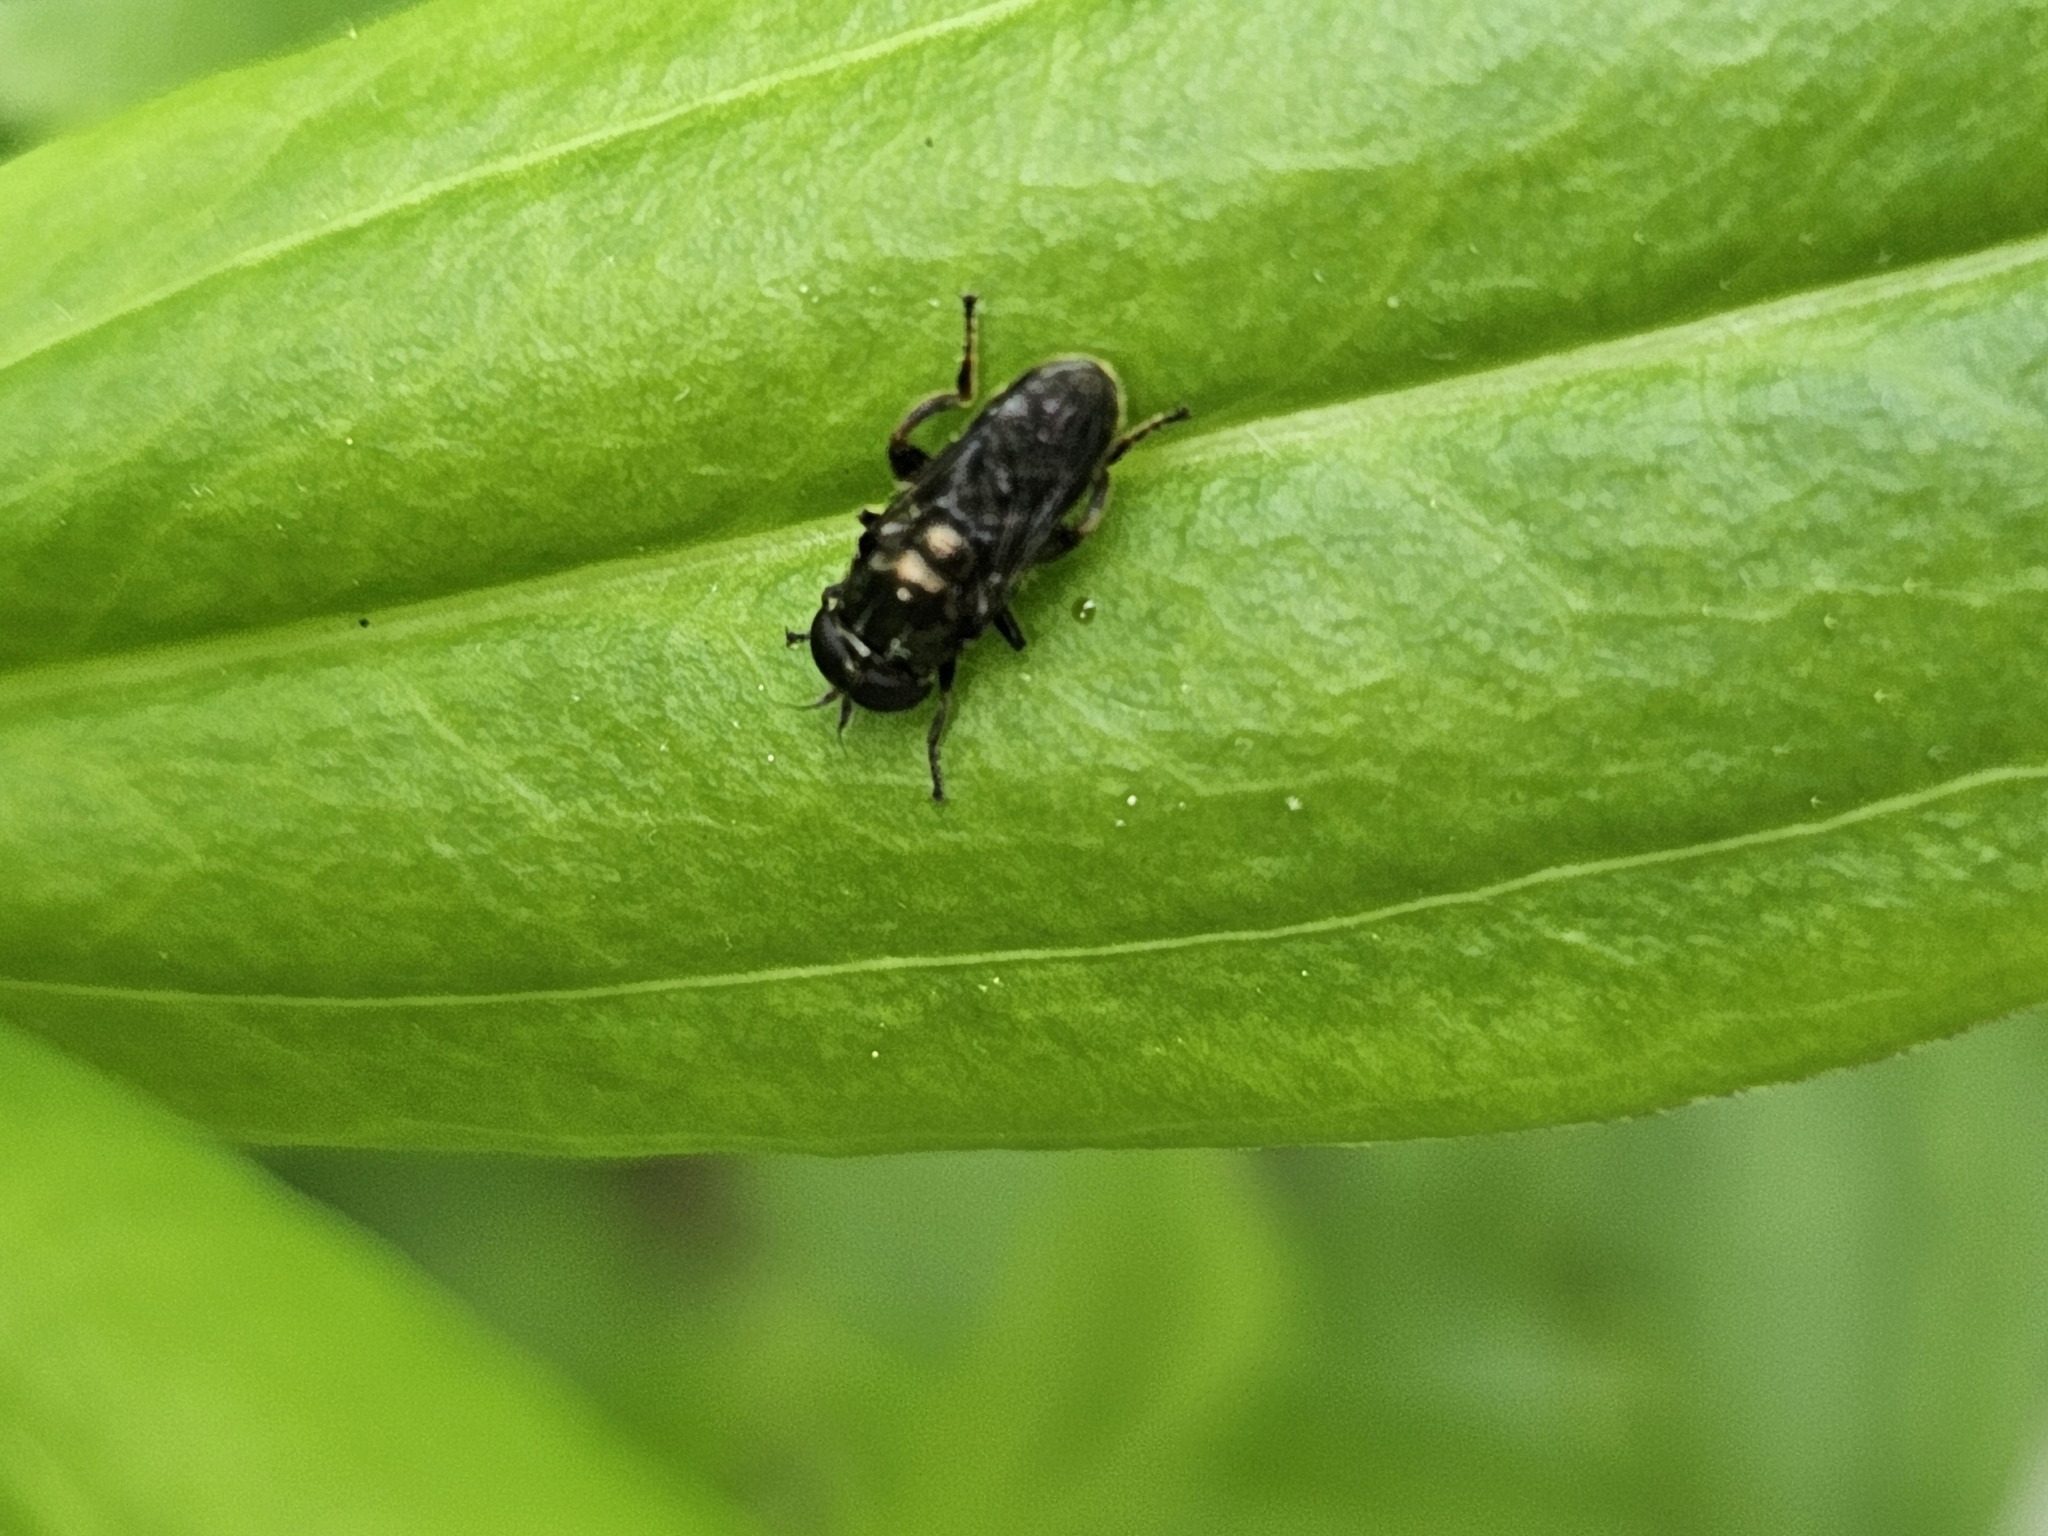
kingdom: Animalia
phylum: Arthropoda
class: Insecta
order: Diptera
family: Syrphidae
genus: Eumerus
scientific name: Eumerus
